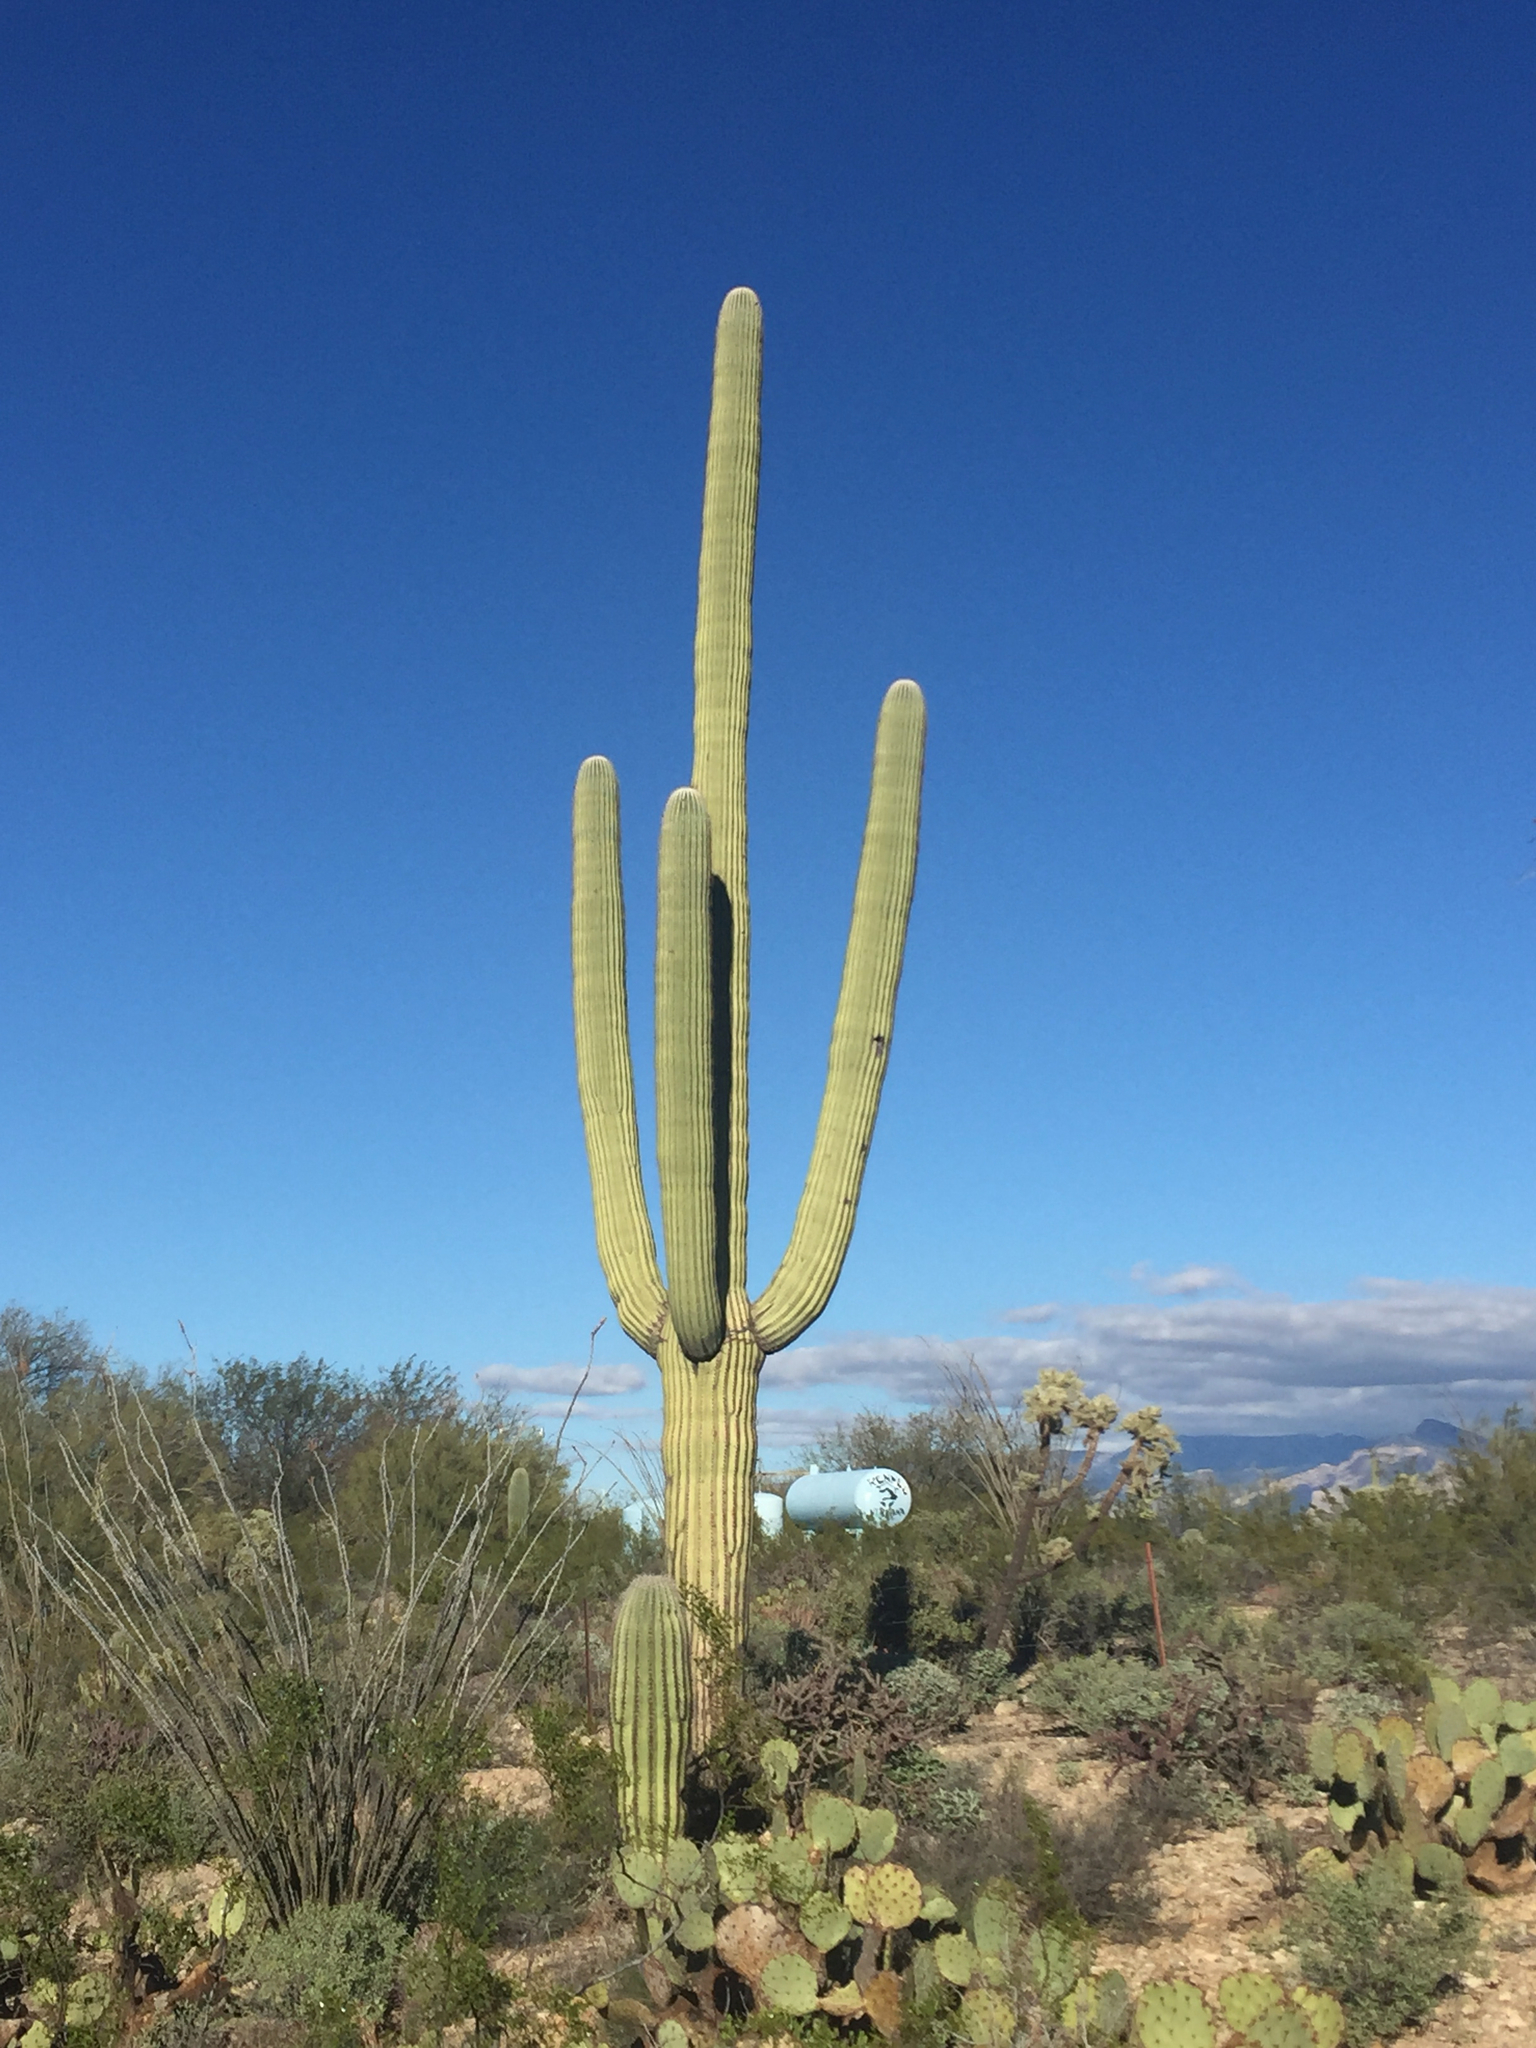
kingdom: Plantae
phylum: Tracheophyta
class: Magnoliopsida
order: Caryophyllales
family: Cactaceae
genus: Carnegiea
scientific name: Carnegiea gigantea
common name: Saguaro
